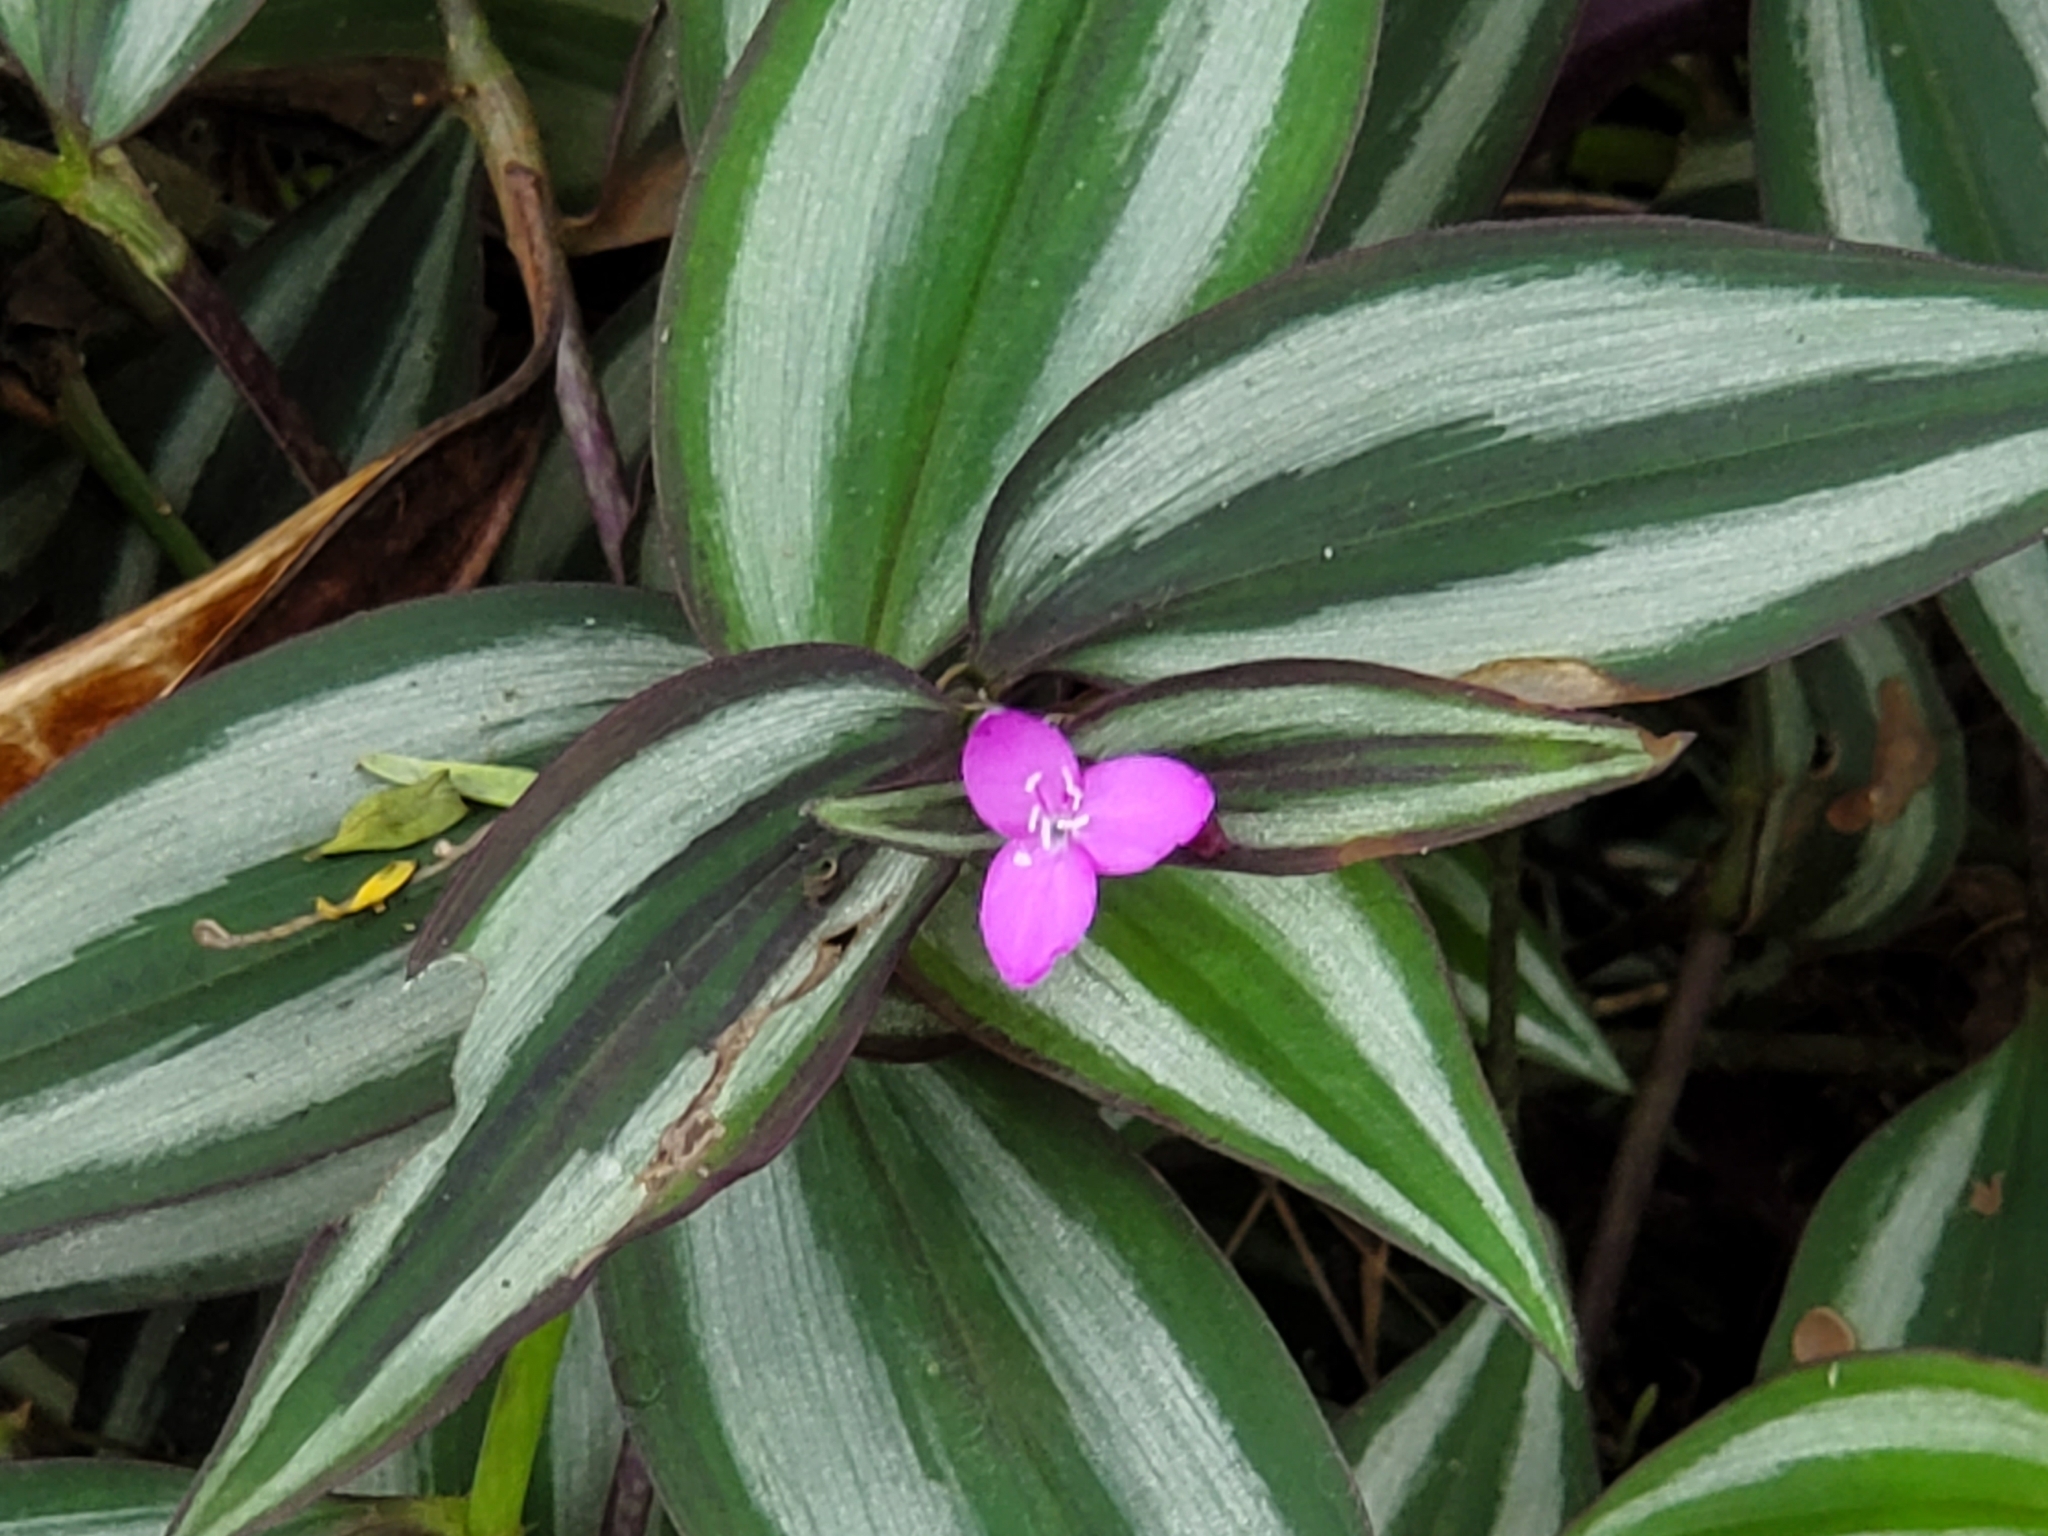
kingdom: Plantae
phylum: Tracheophyta
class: Liliopsida
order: Commelinales
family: Commelinaceae
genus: Tradescantia
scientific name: Tradescantia zebrina
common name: Inchplant
